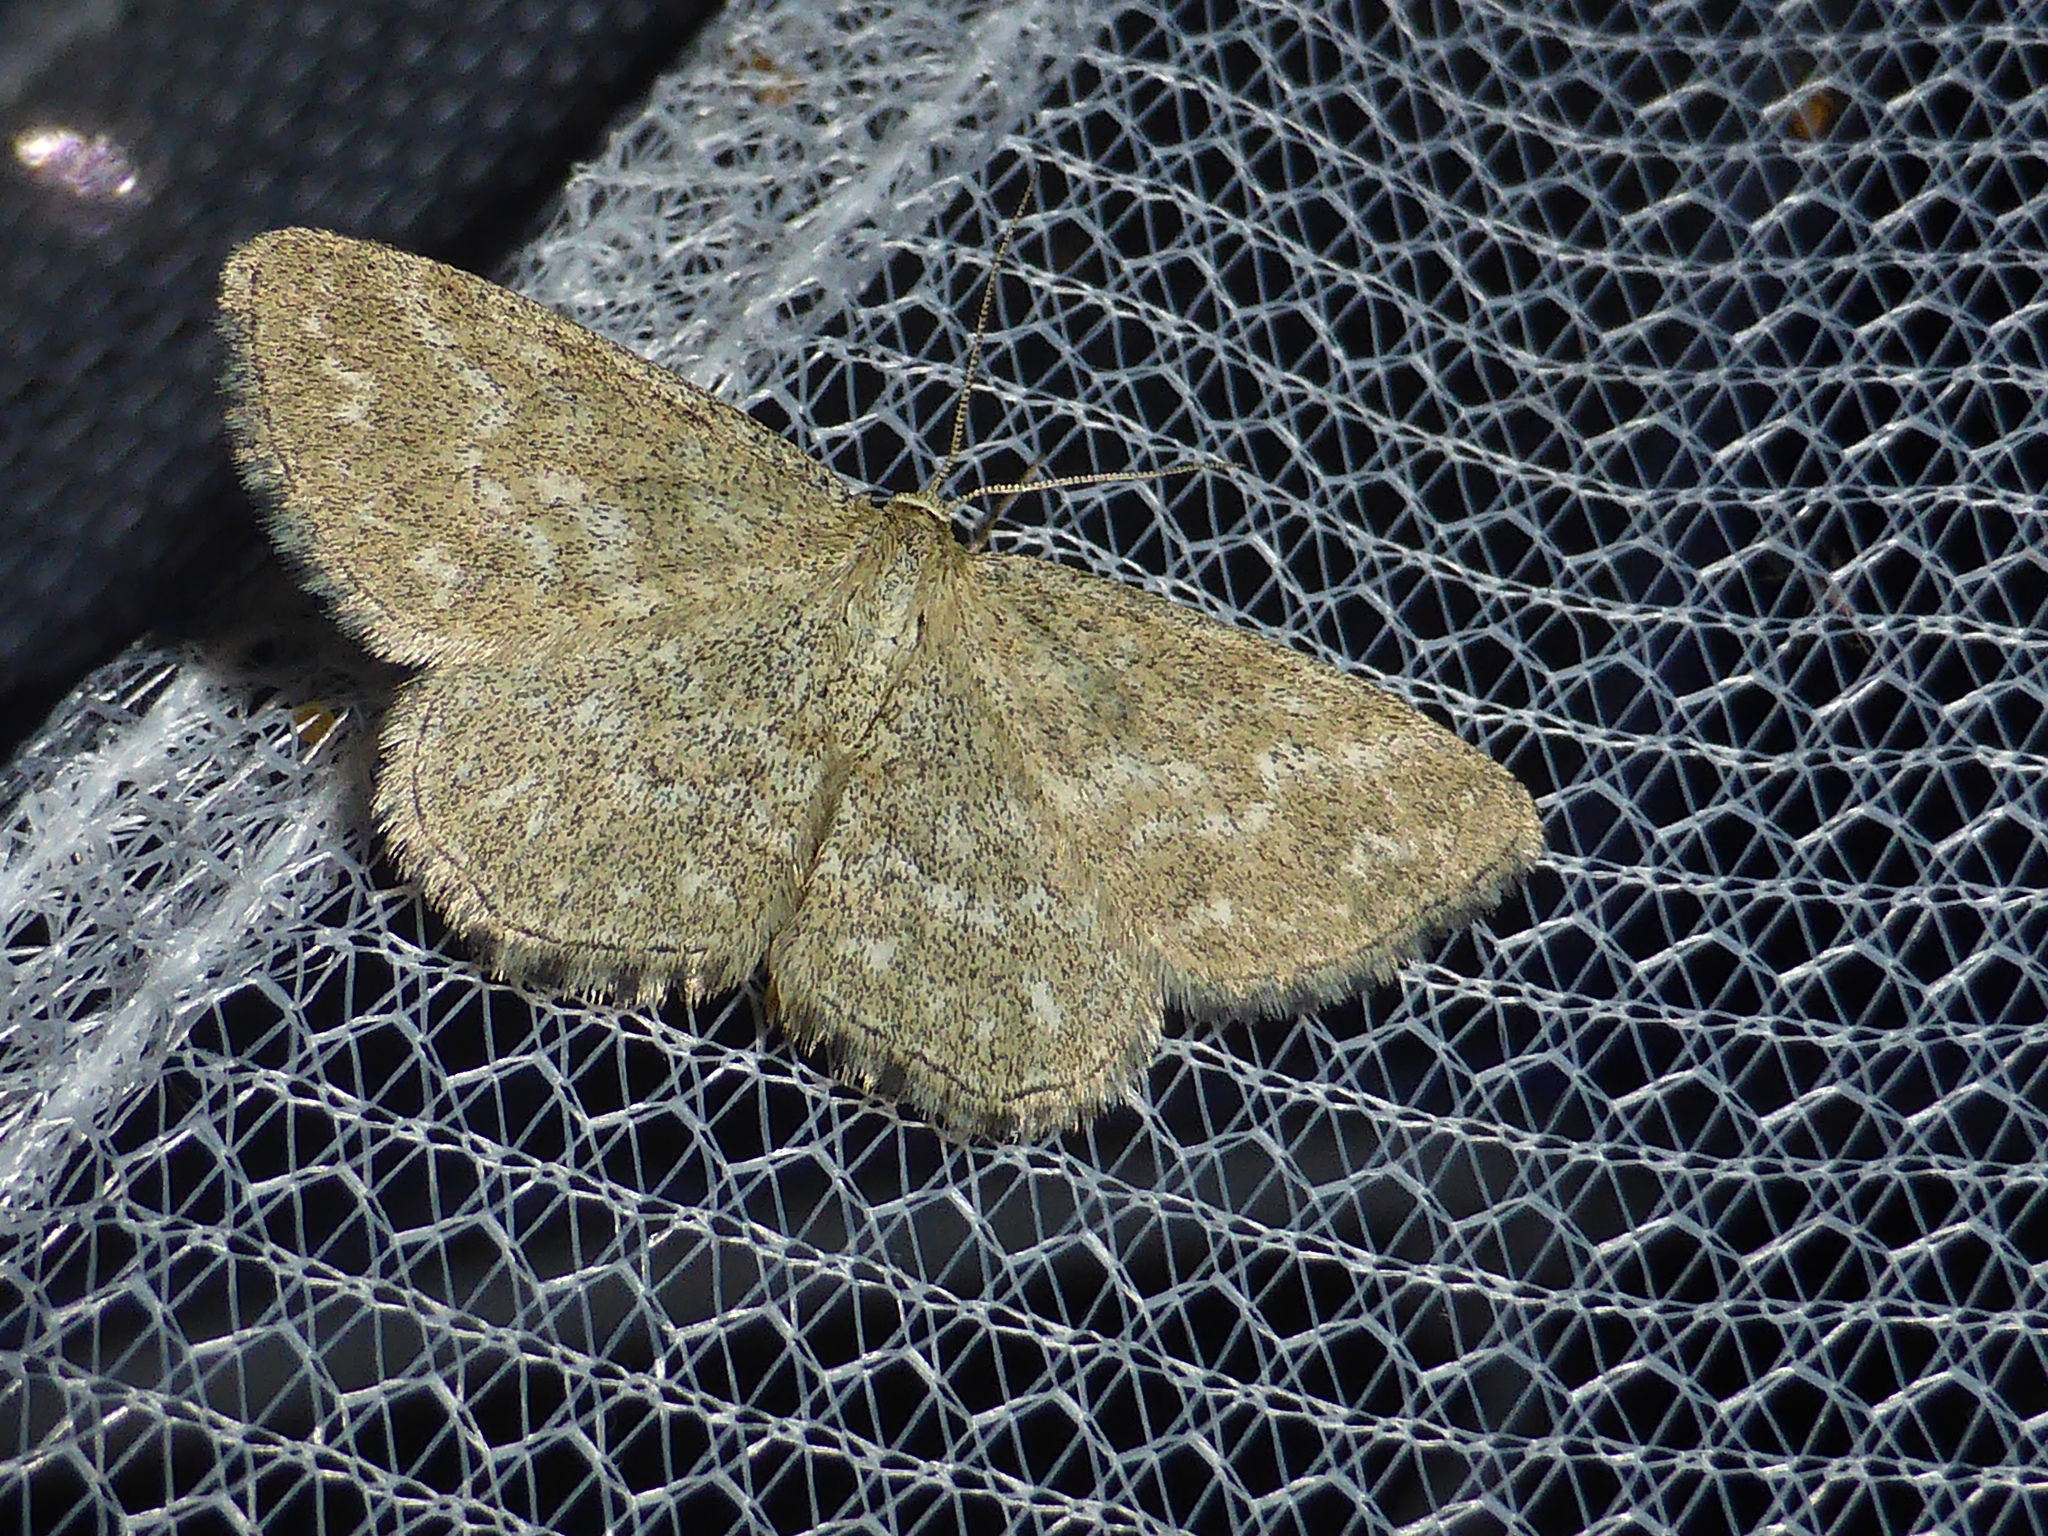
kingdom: Animalia
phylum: Arthropoda
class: Insecta
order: Lepidoptera
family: Geometridae
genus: Scopula
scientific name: Scopula immorata
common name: Lewes wave
